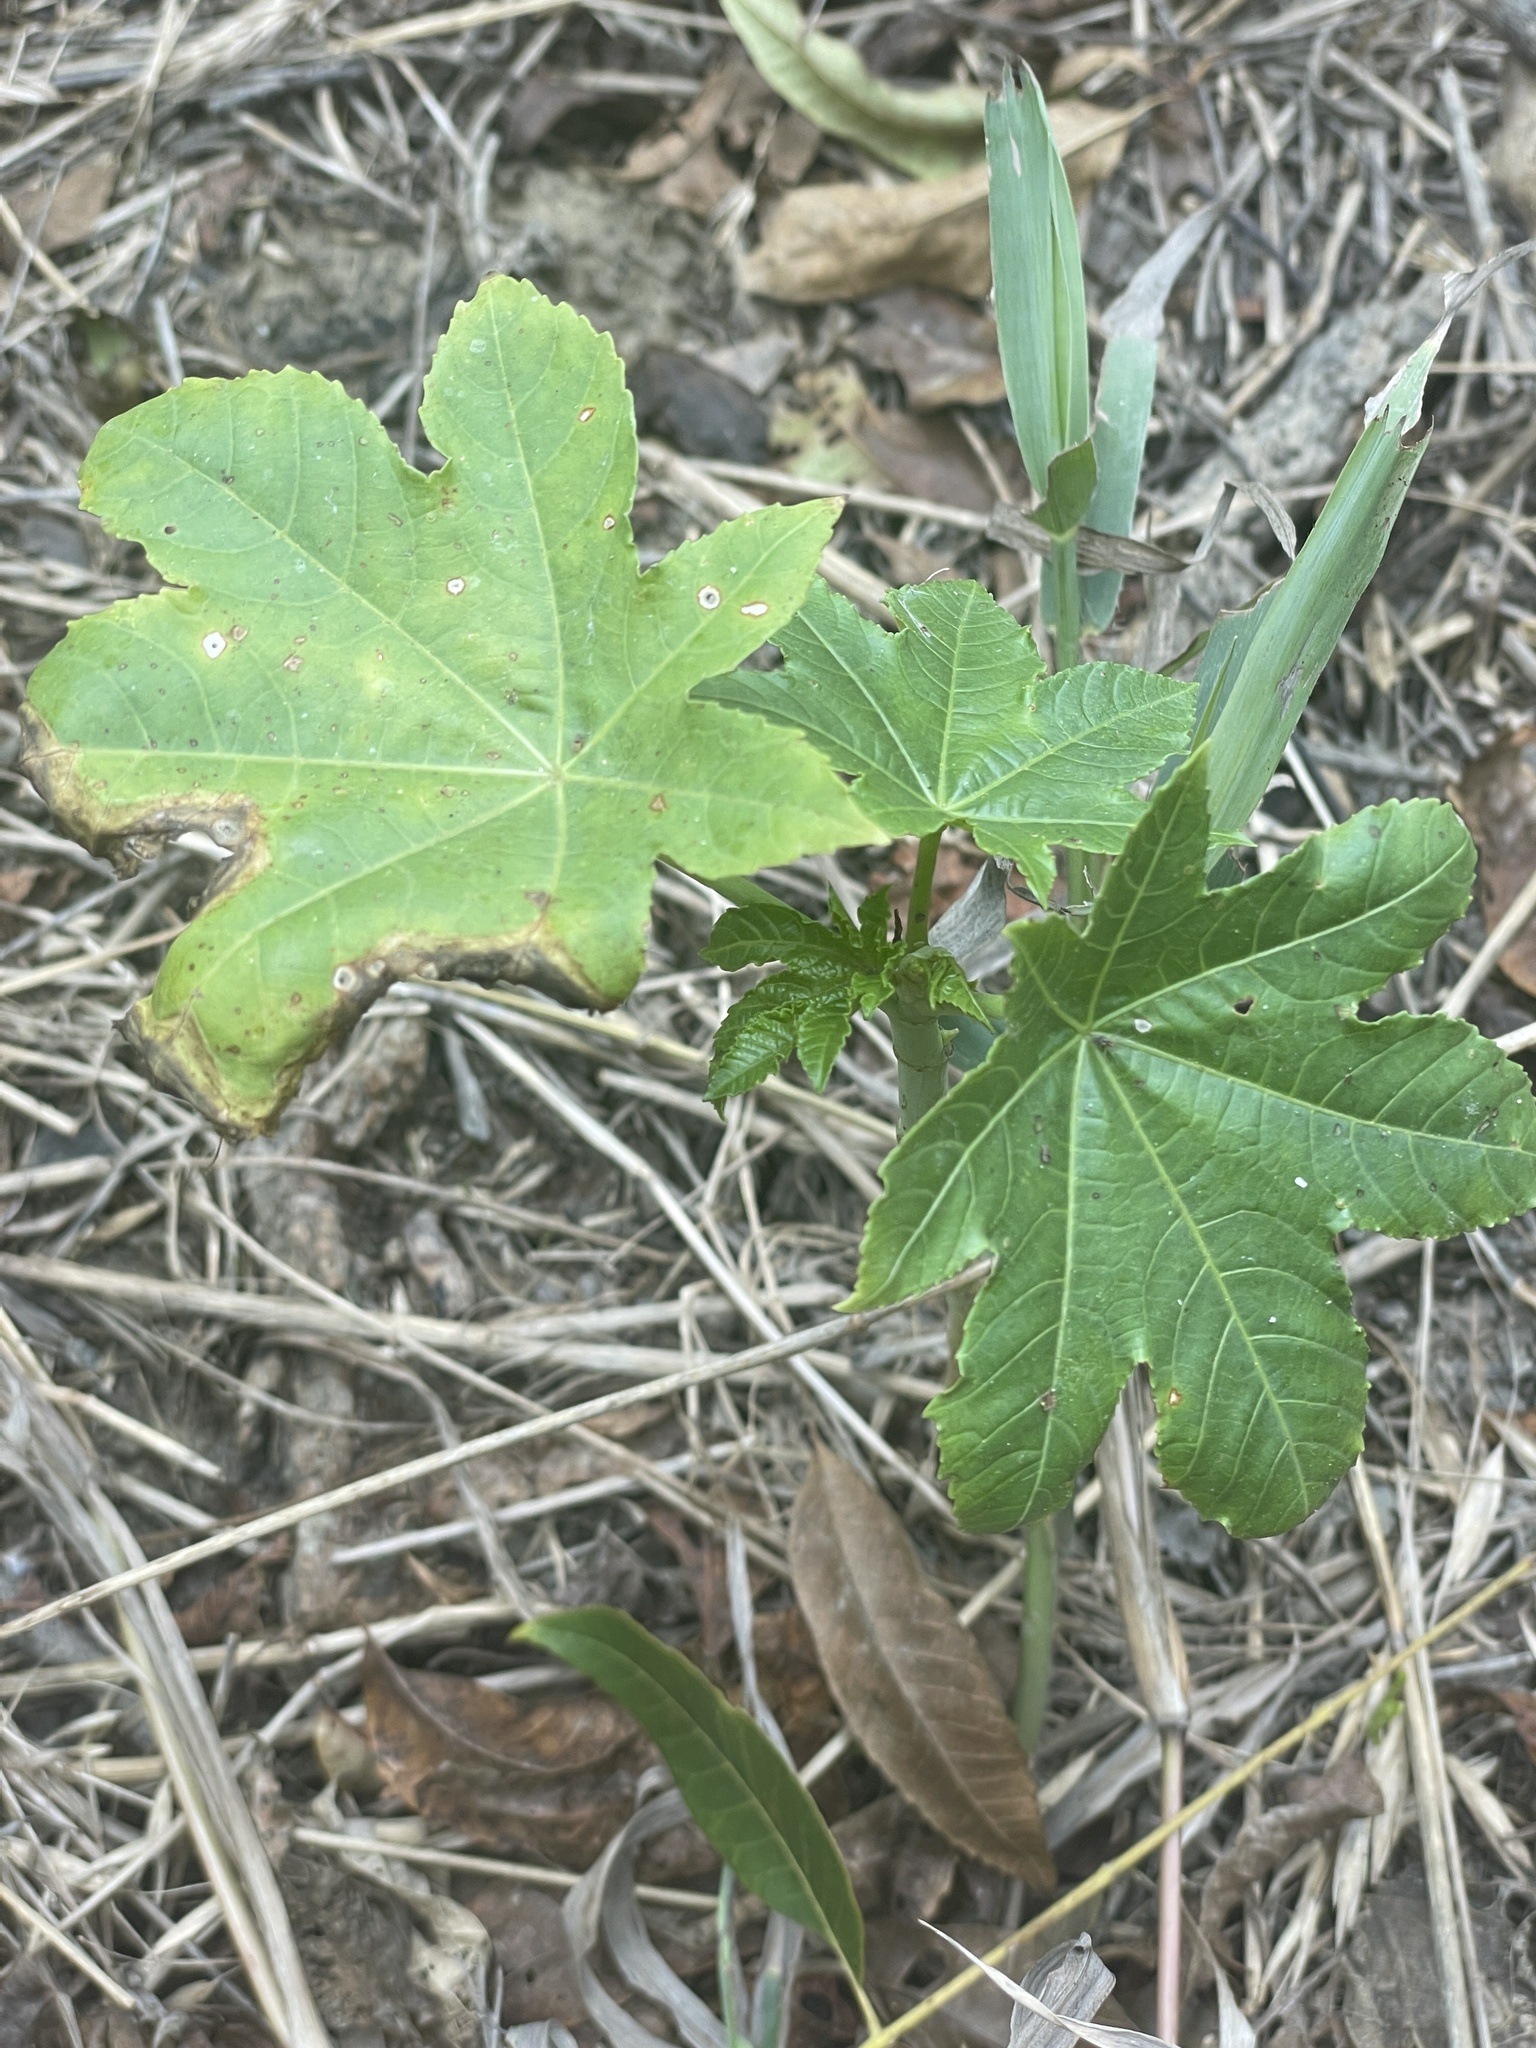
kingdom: Plantae
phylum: Tracheophyta
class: Magnoliopsida
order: Malpighiales
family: Euphorbiaceae
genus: Ricinus
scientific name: Ricinus communis
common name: Castor-oil-plant
